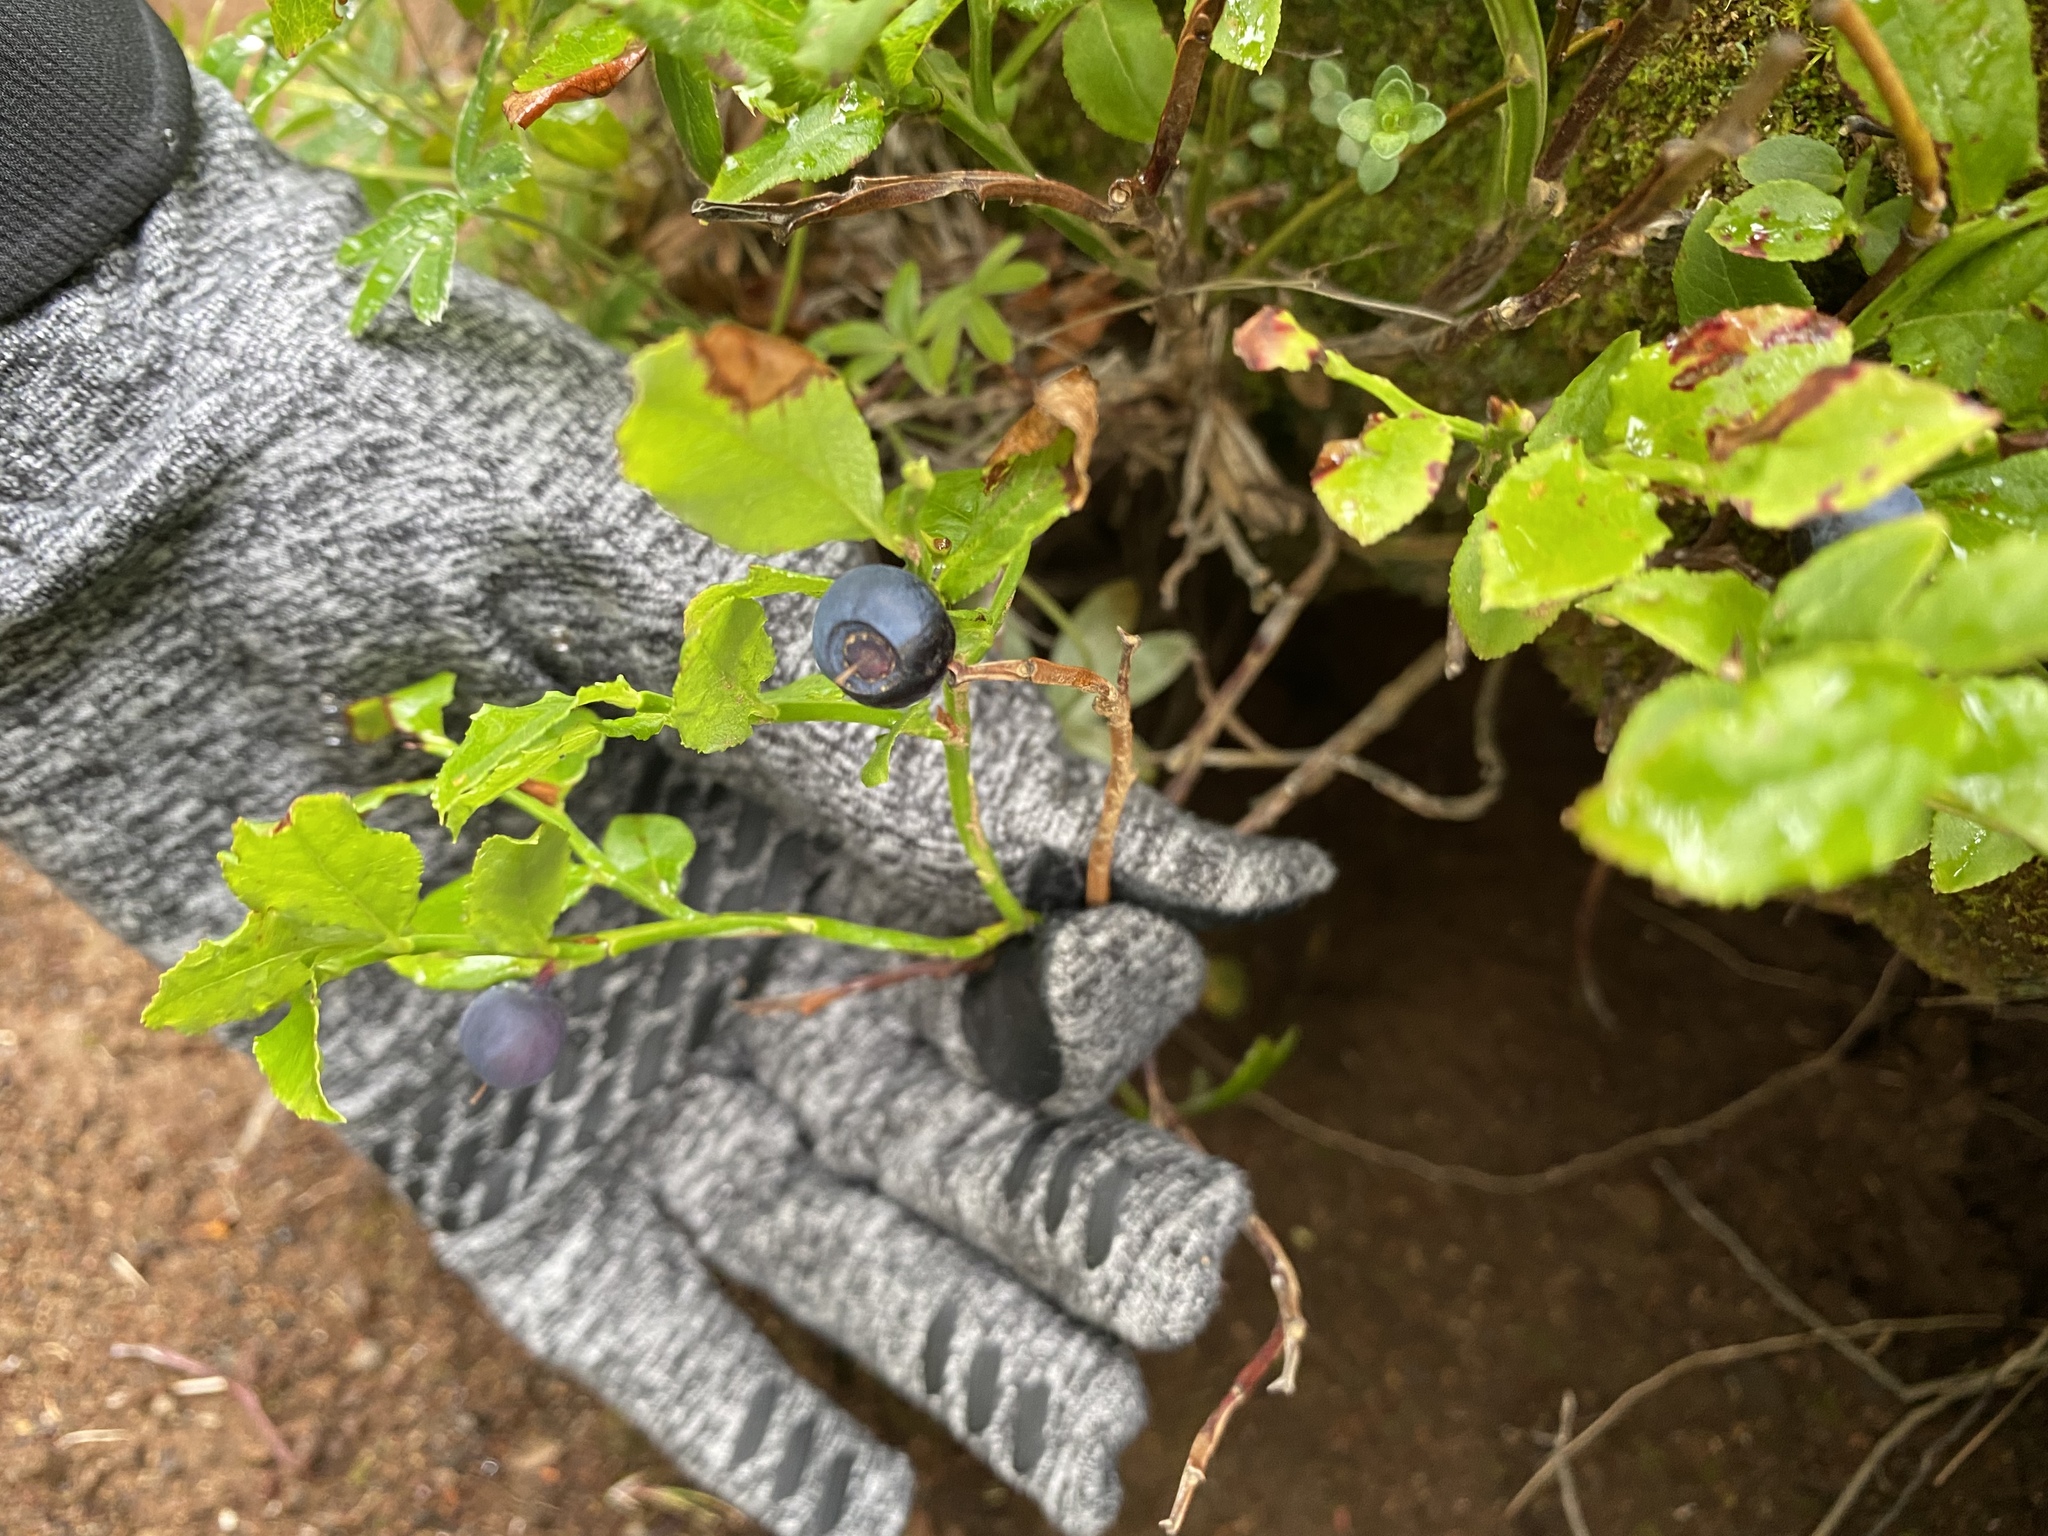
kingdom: Plantae
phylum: Tracheophyta
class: Magnoliopsida
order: Ericales
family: Ericaceae
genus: Vaccinium
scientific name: Vaccinium myrtillus
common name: Bilberry
